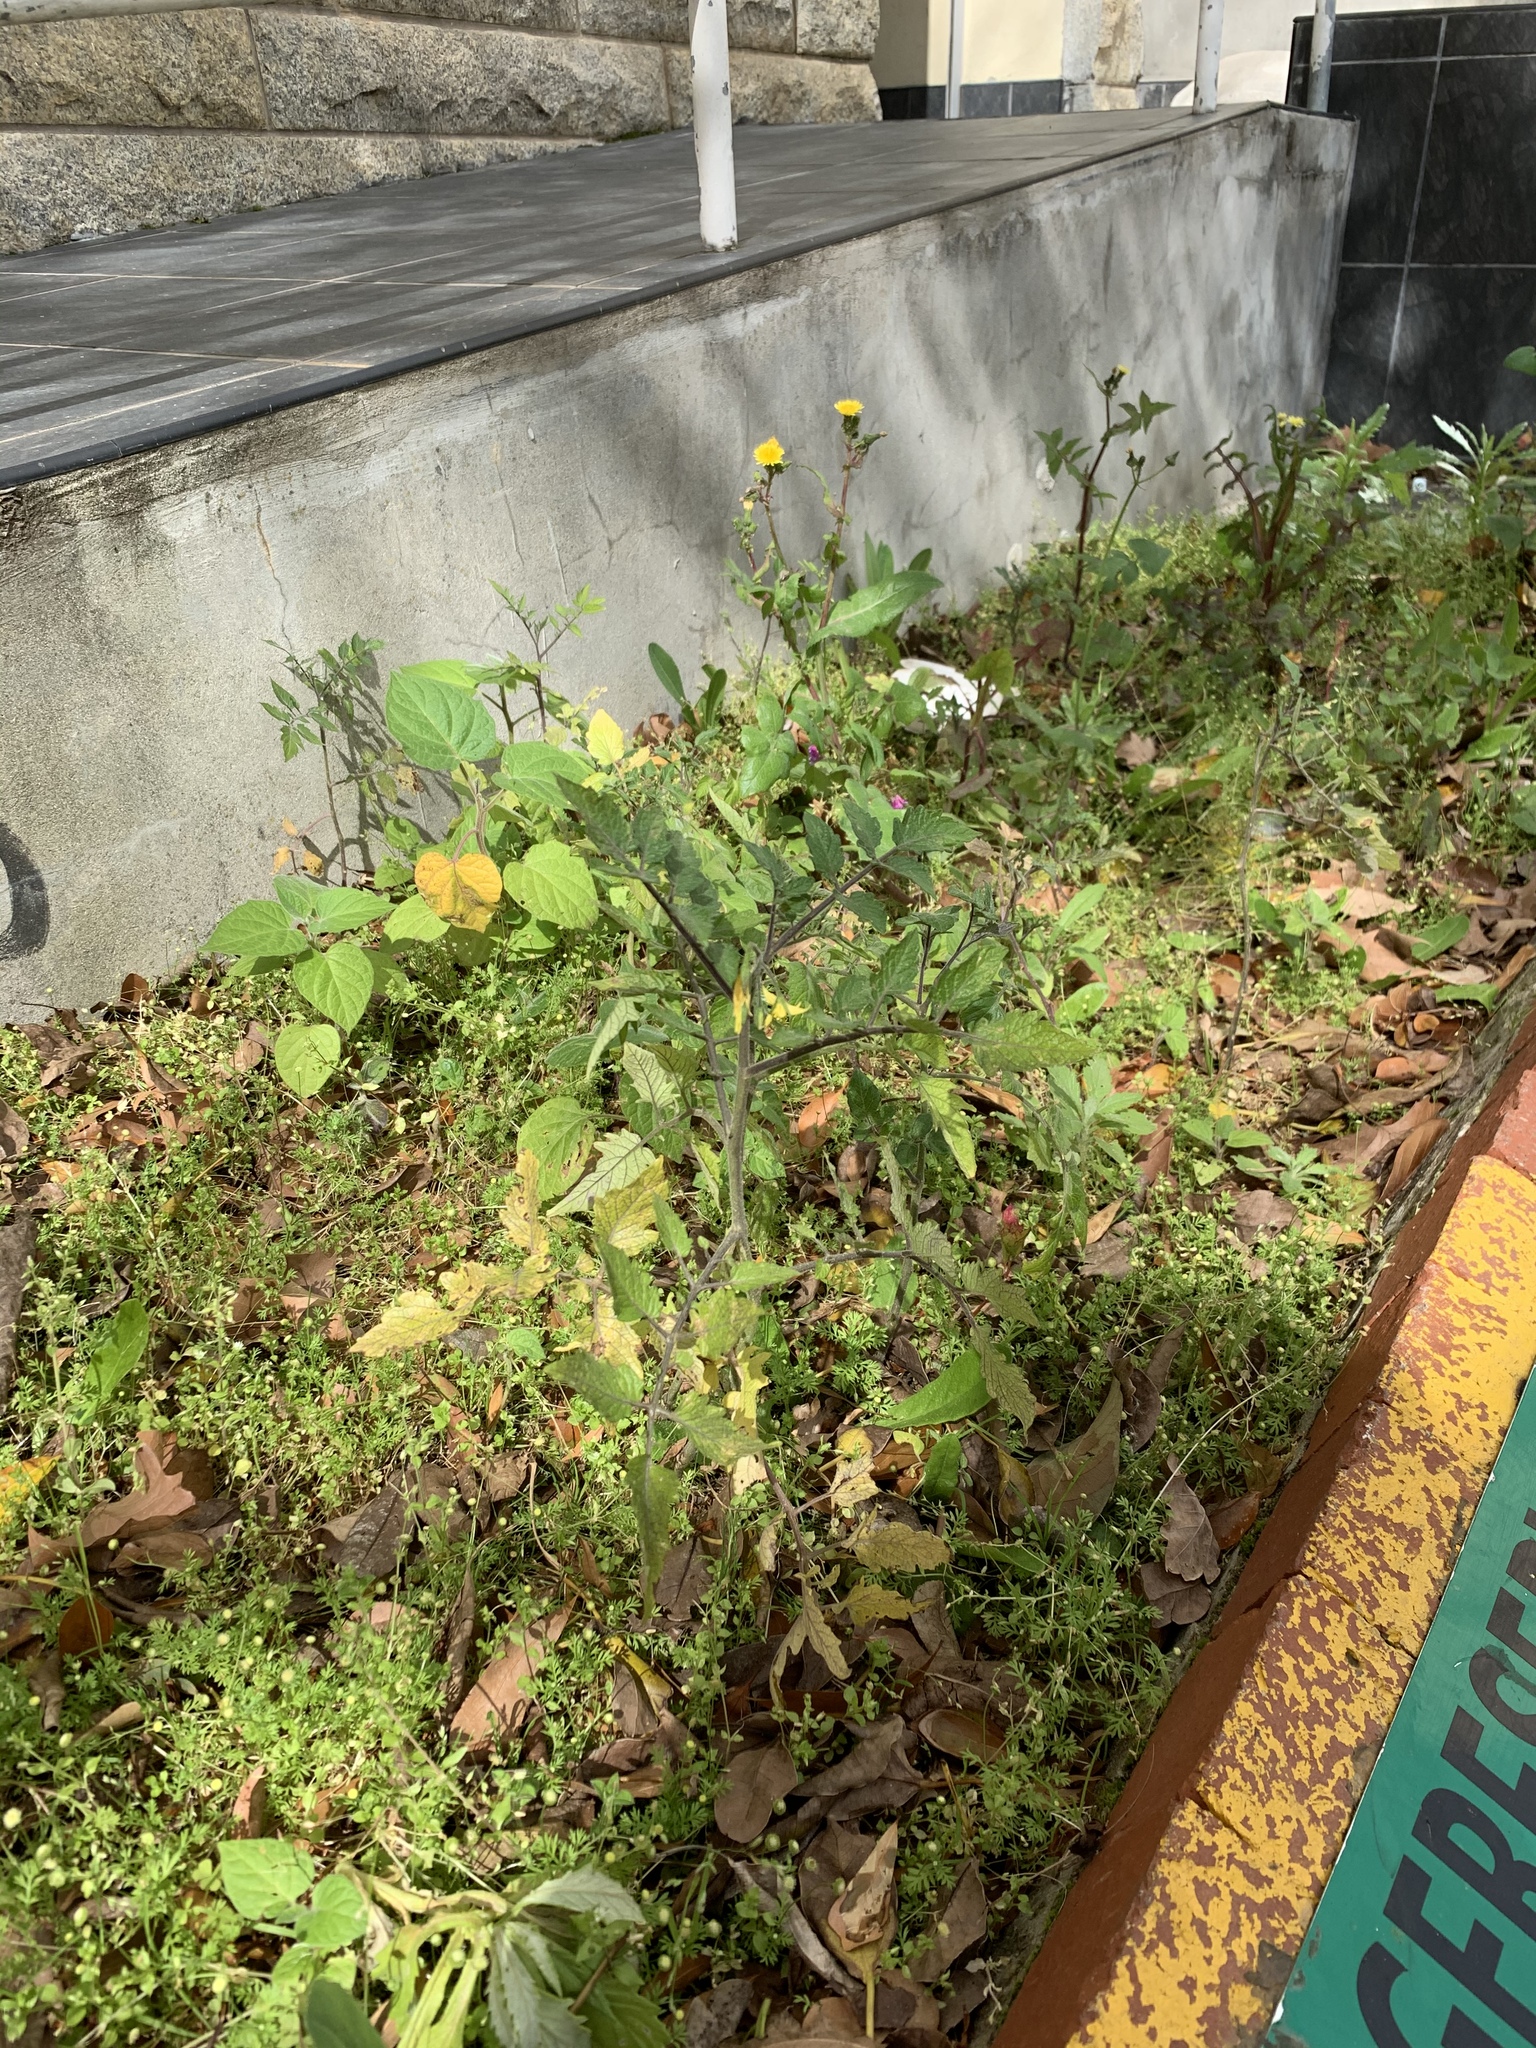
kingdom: Plantae
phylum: Tracheophyta
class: Magnoliopsida
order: Solanales
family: Solanaceae
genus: Solanum
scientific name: Solanum lycopersicum
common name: Garden tomato
